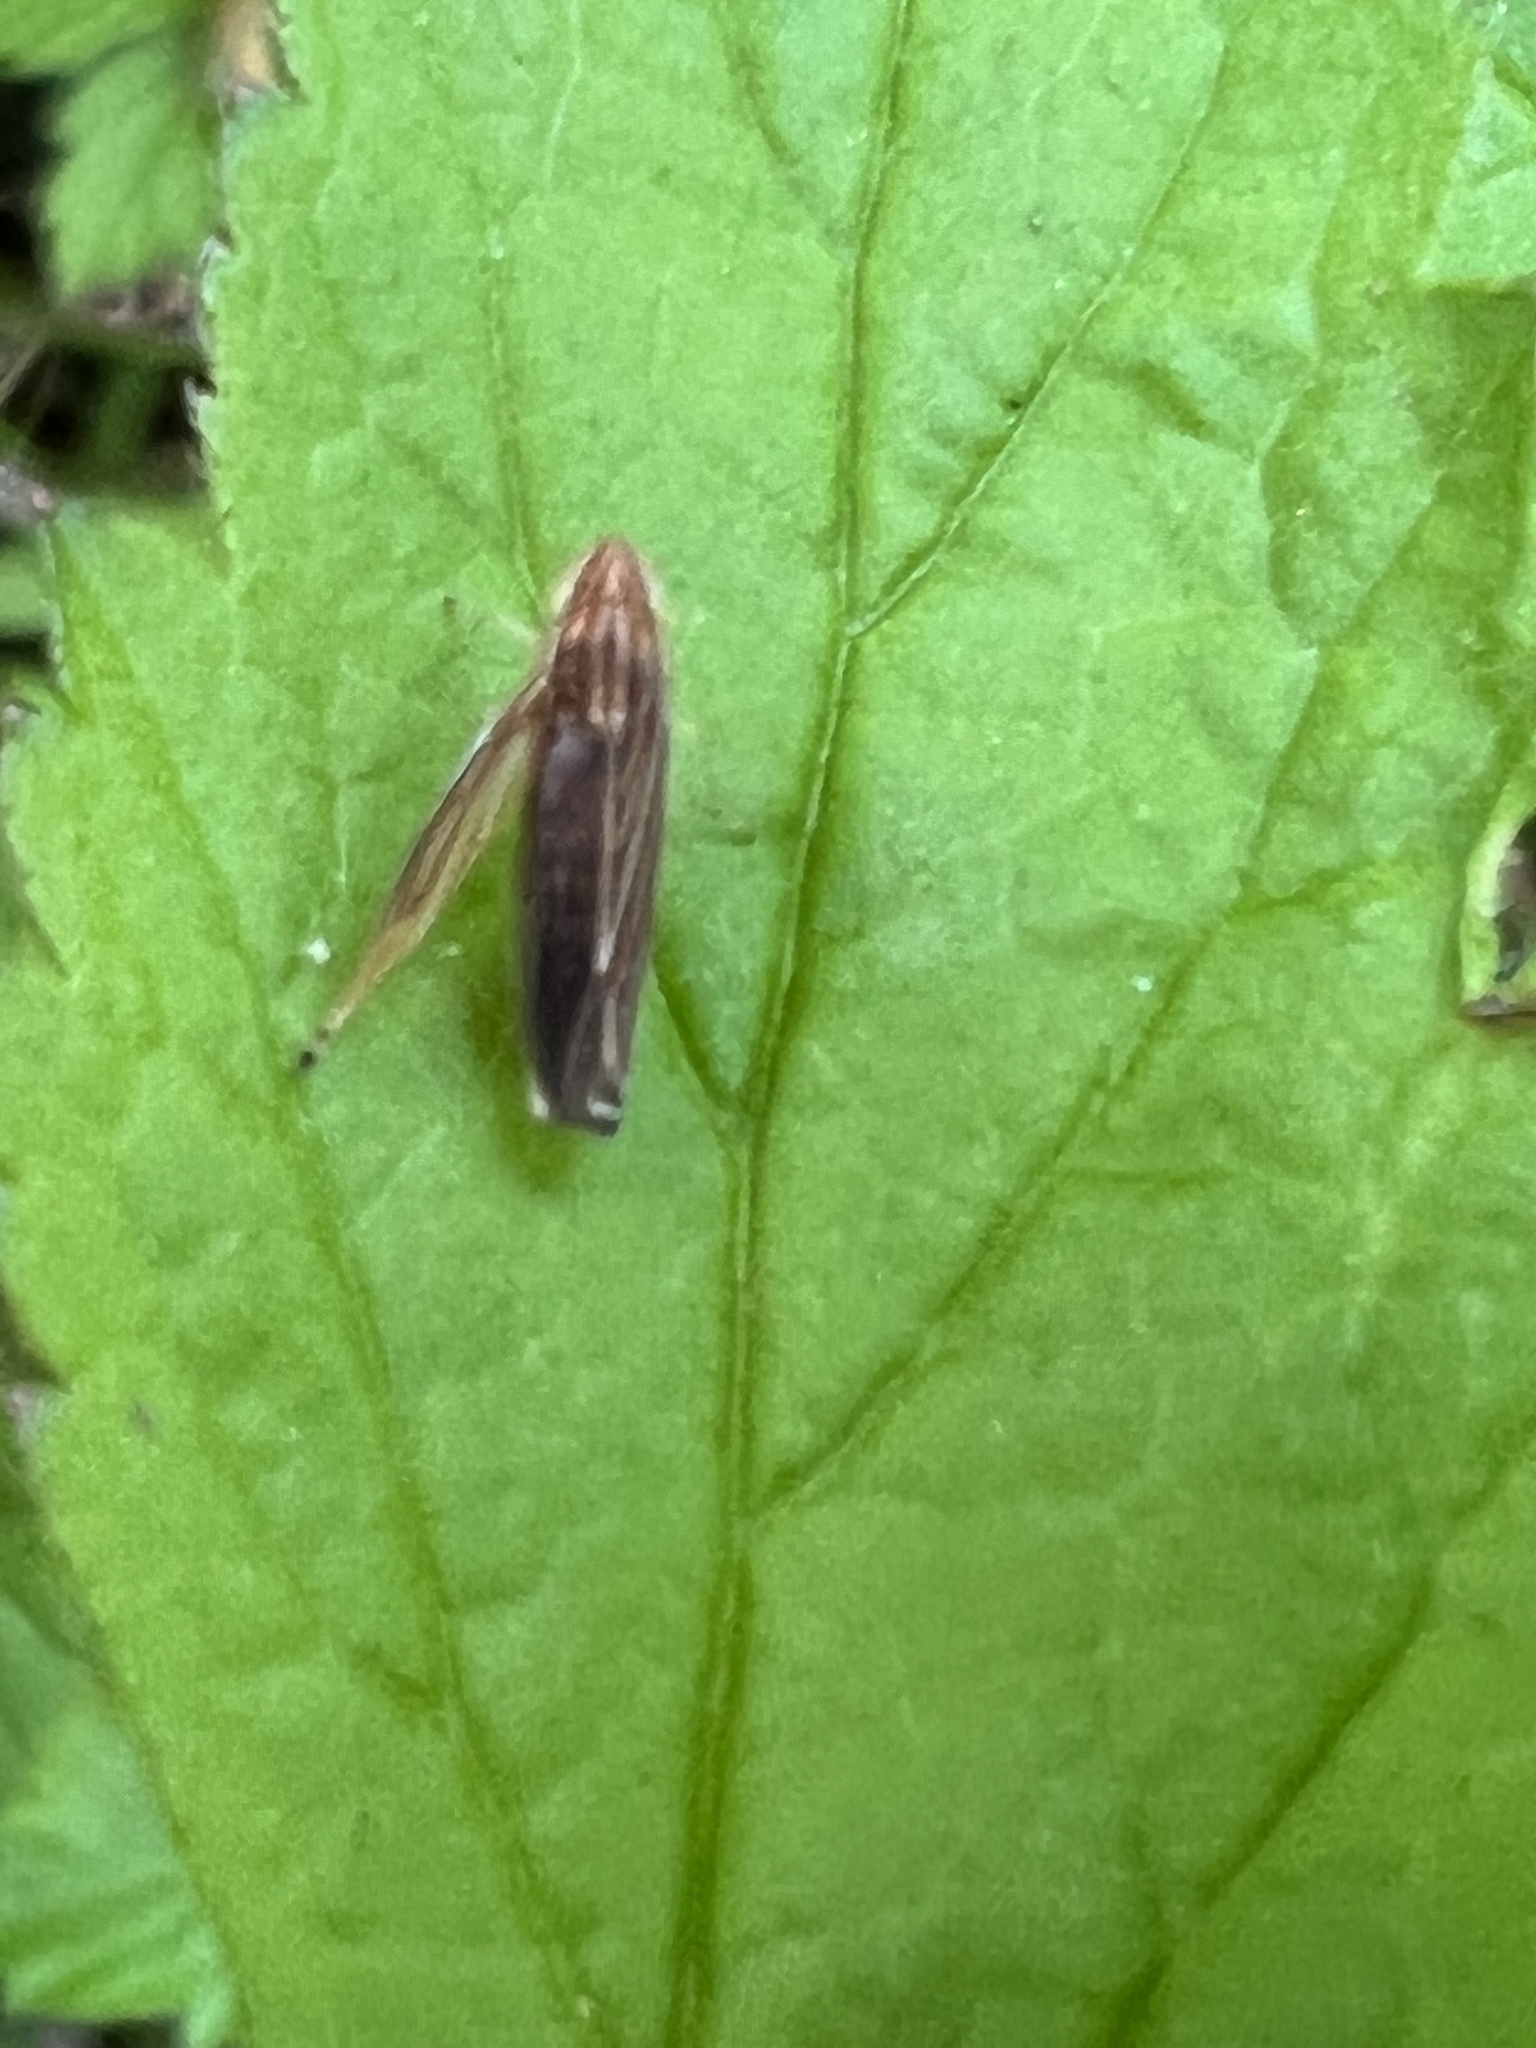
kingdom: Animalia
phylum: Arthropoda
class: Insecta
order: Hemiptera
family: Cicadellidae
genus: Sibovia
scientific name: Sibovia occatoria
